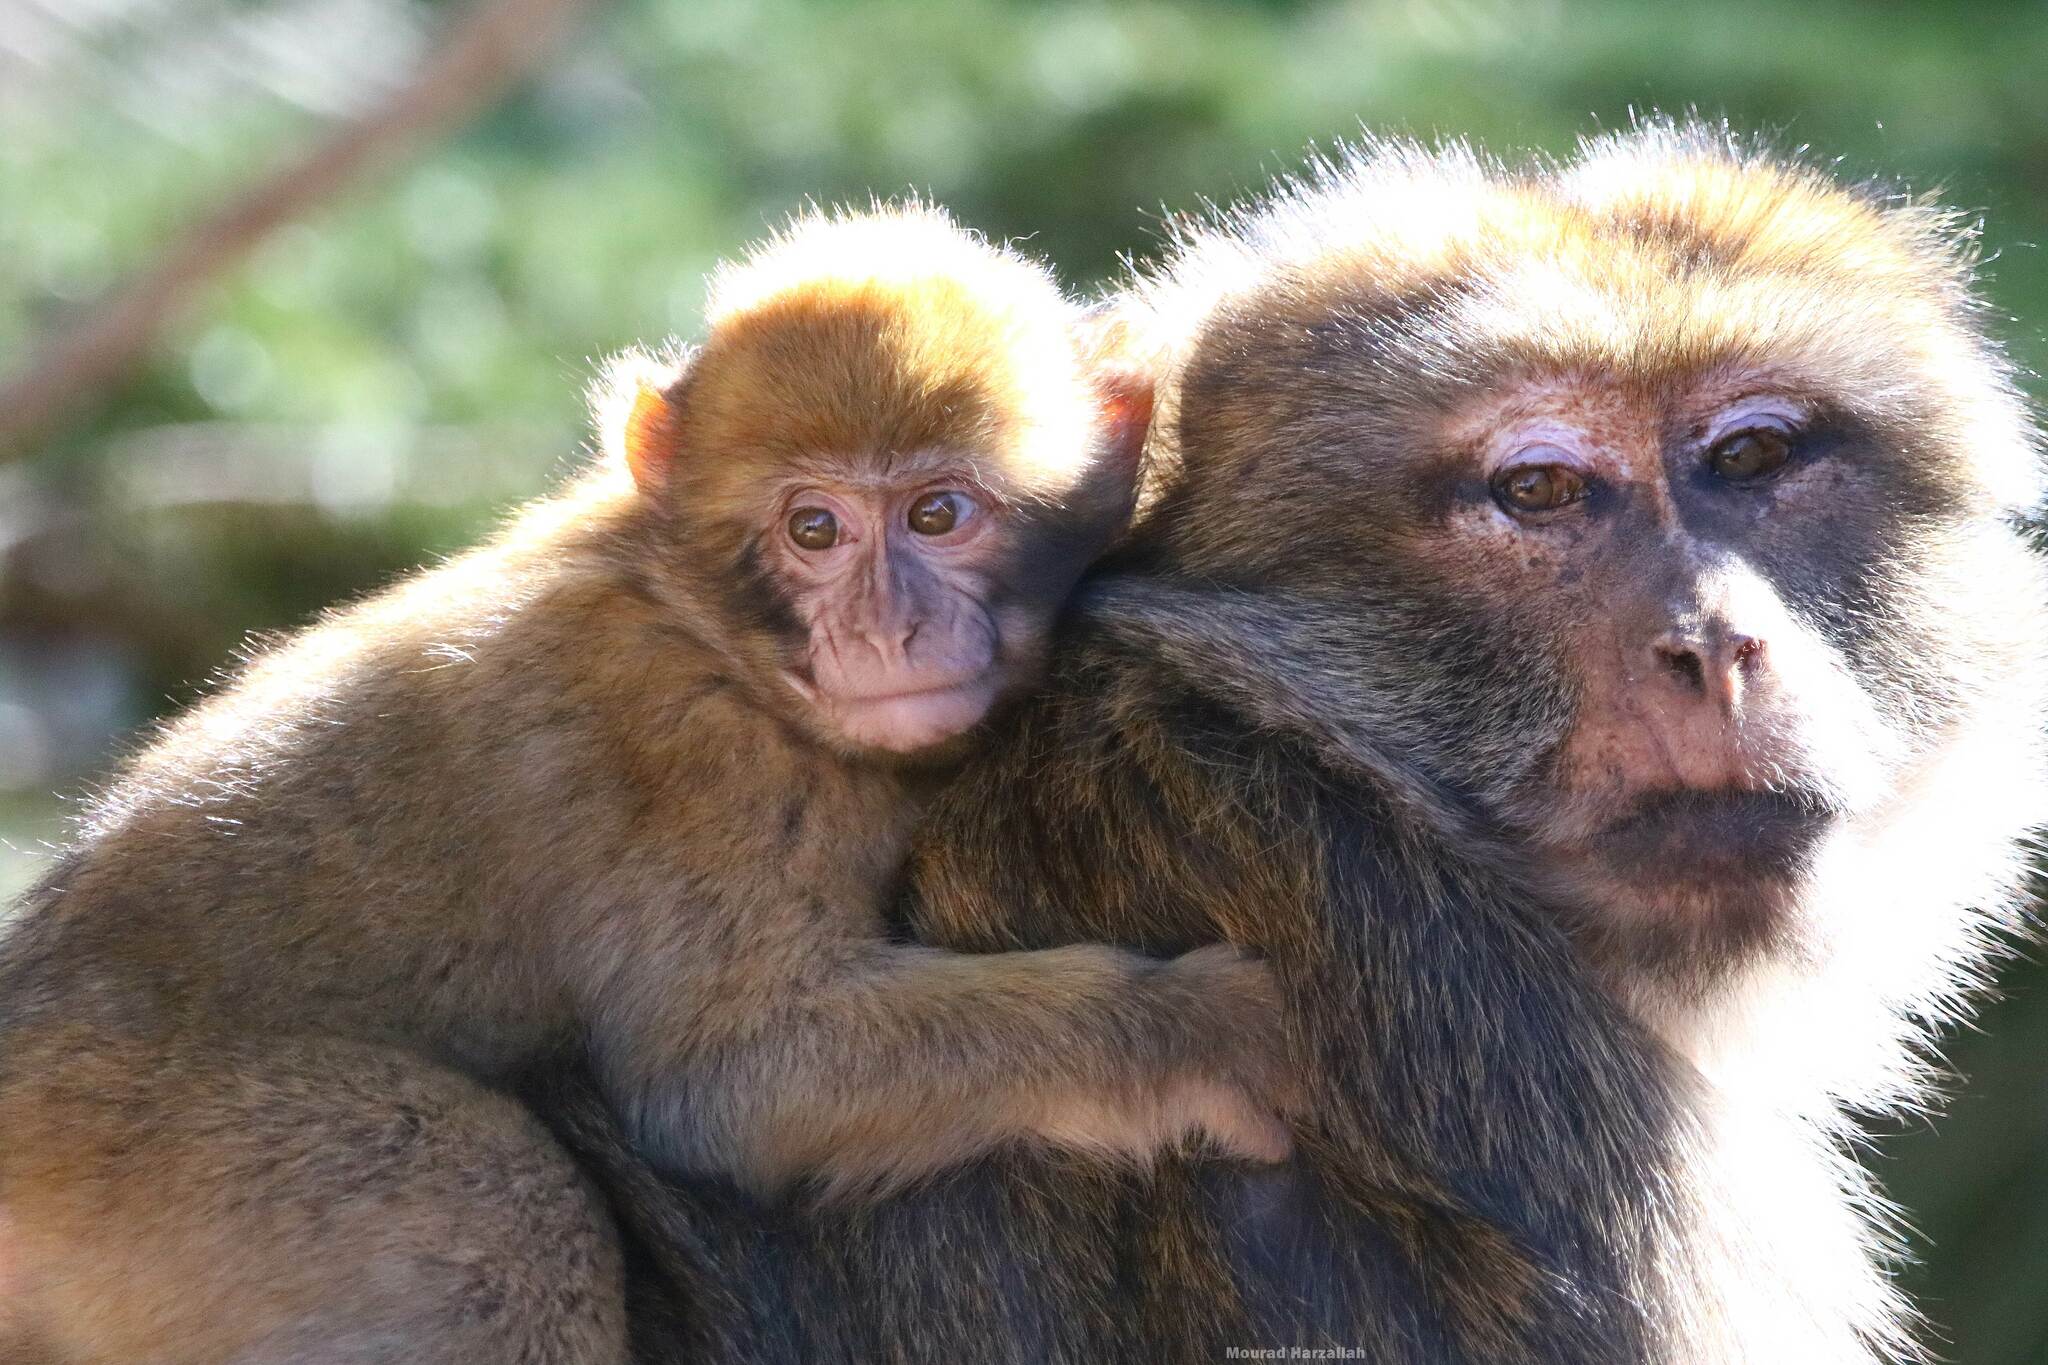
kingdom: Animalia
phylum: Chordata
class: Mammalia
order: Primates
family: Cercopithecidae
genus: Macaca
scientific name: Macaca sylvanus
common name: Barbary macaque
